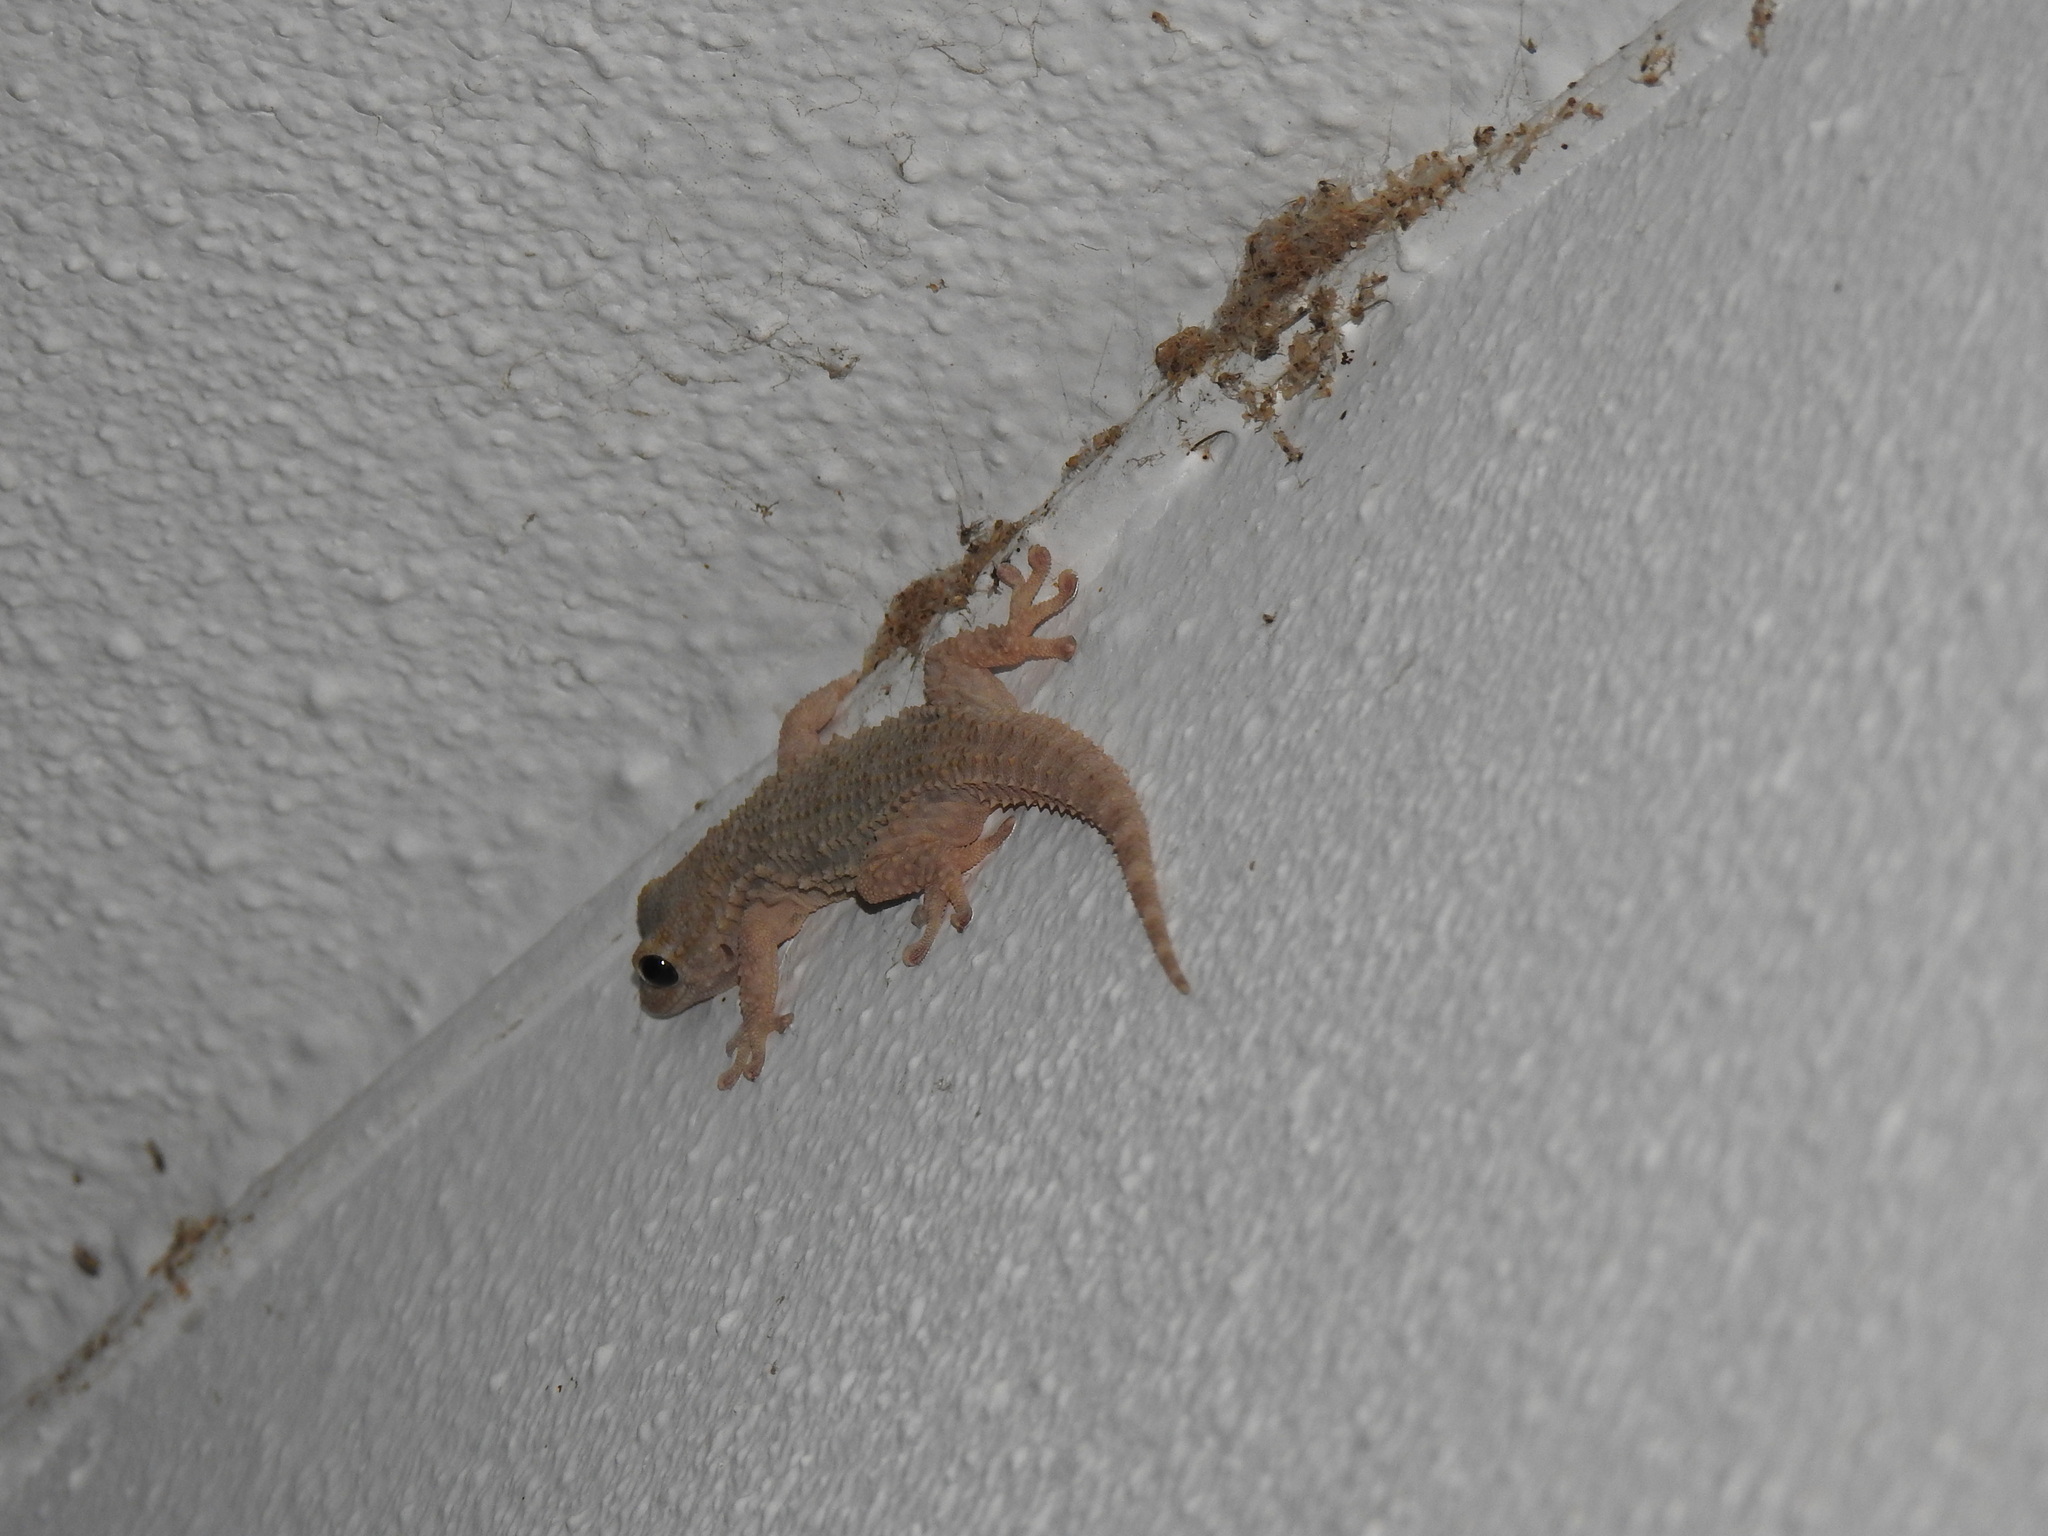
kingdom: Animalia
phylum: Chordata
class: Squamata
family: Phyllodactylidae
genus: Tarentola
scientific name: Tarentola mauritanica
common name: Moorish gecko
